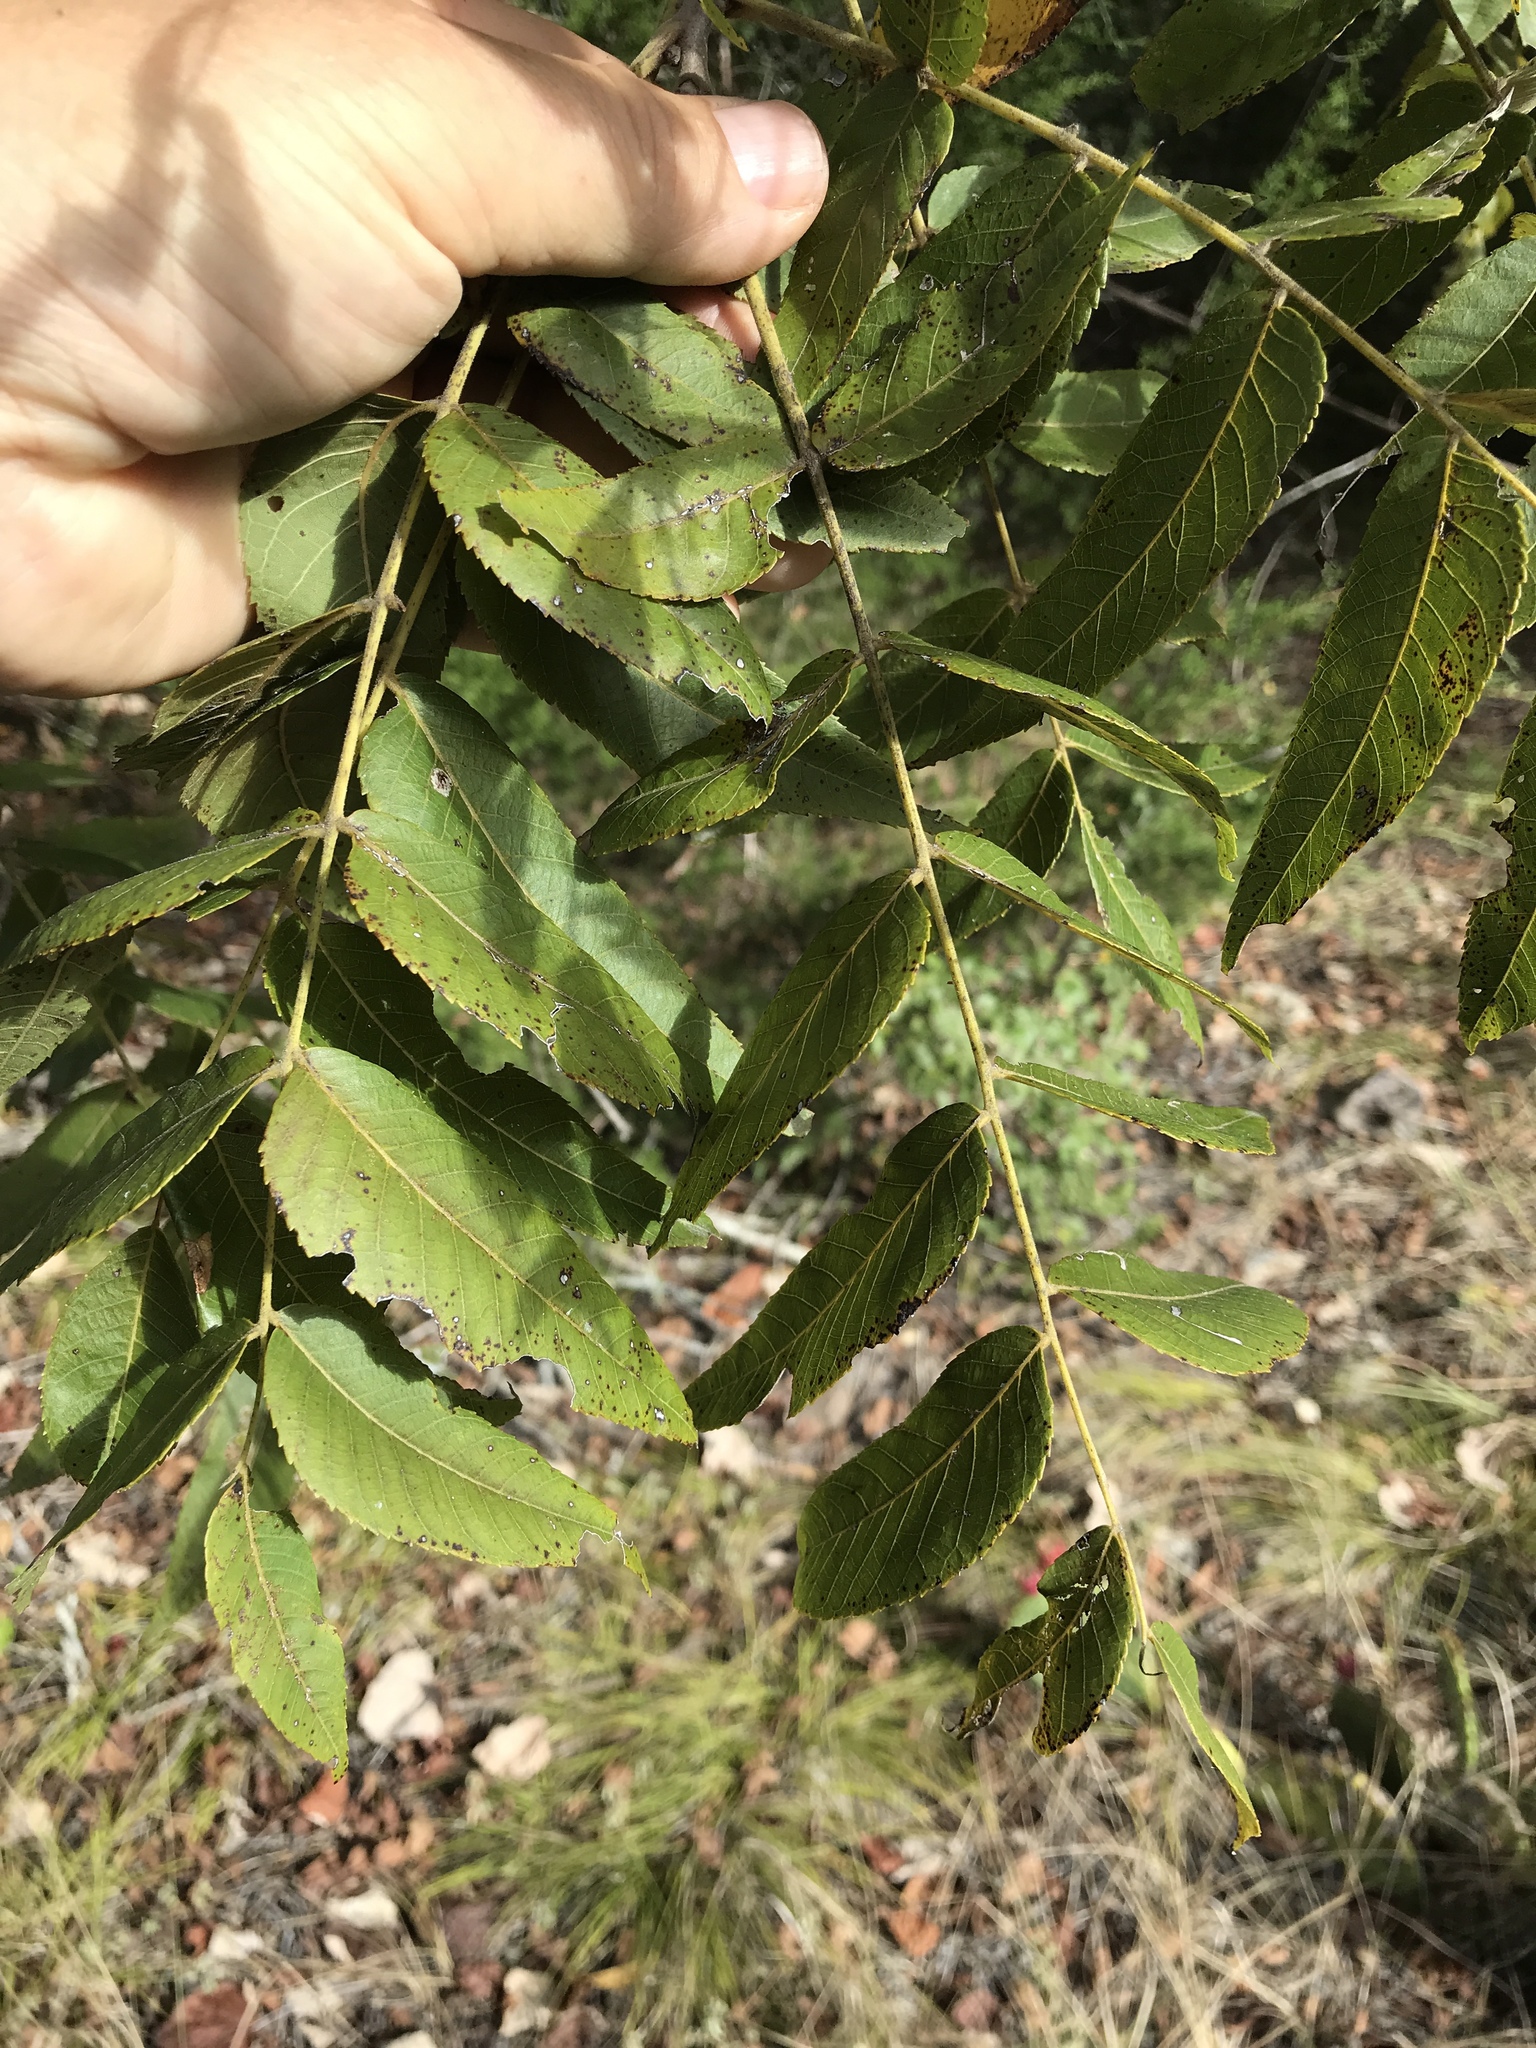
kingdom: Plantae
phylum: Tracheophyta
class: Magnoliopsida
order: Fagales
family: Juglandaceae
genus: Juglans
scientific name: Juglans nigra
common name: Black walnut
